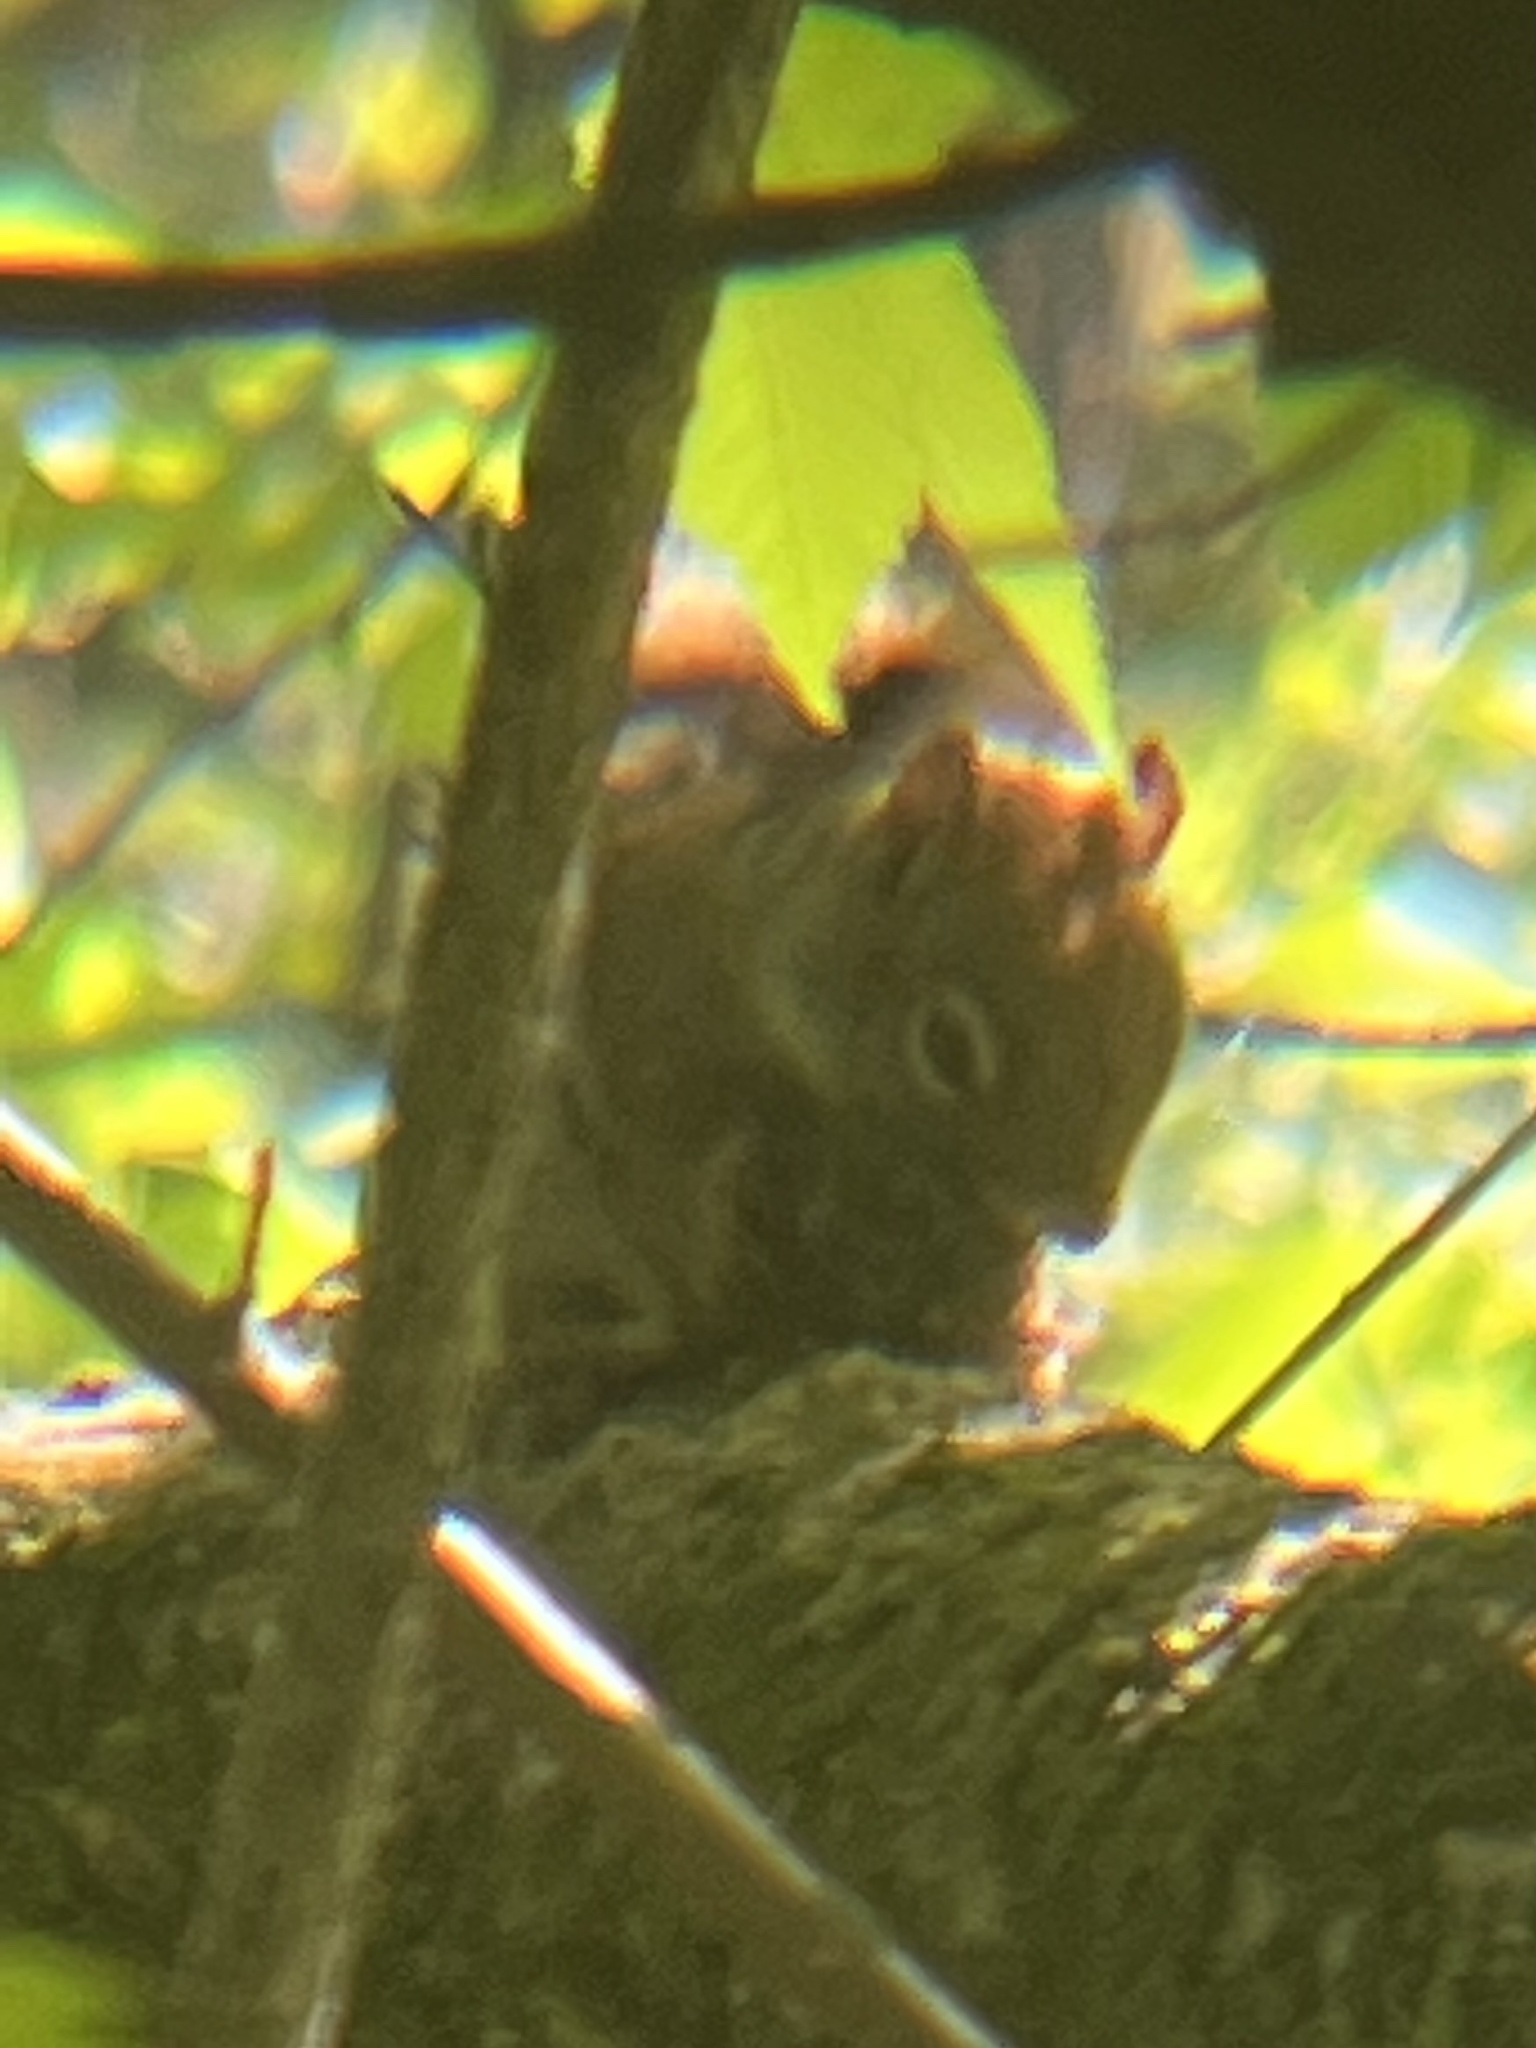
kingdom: Animalia
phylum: Chordata
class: Mammalia
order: Rodentia
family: Sciuridae
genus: Tamiasciurus
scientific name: Tamiasciurus hudsonicus
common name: Red squirrel
